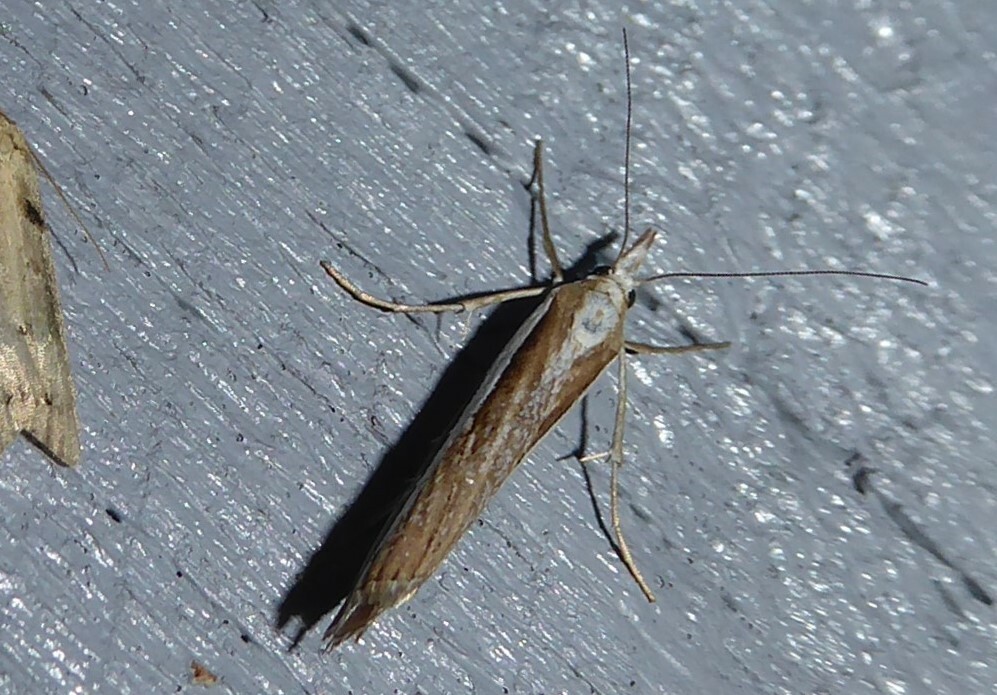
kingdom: Animalia
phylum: Arthropoda
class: Insecta
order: Lepidoptera
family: Crambidae
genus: Orocrambus
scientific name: Orocrambus vittellus
